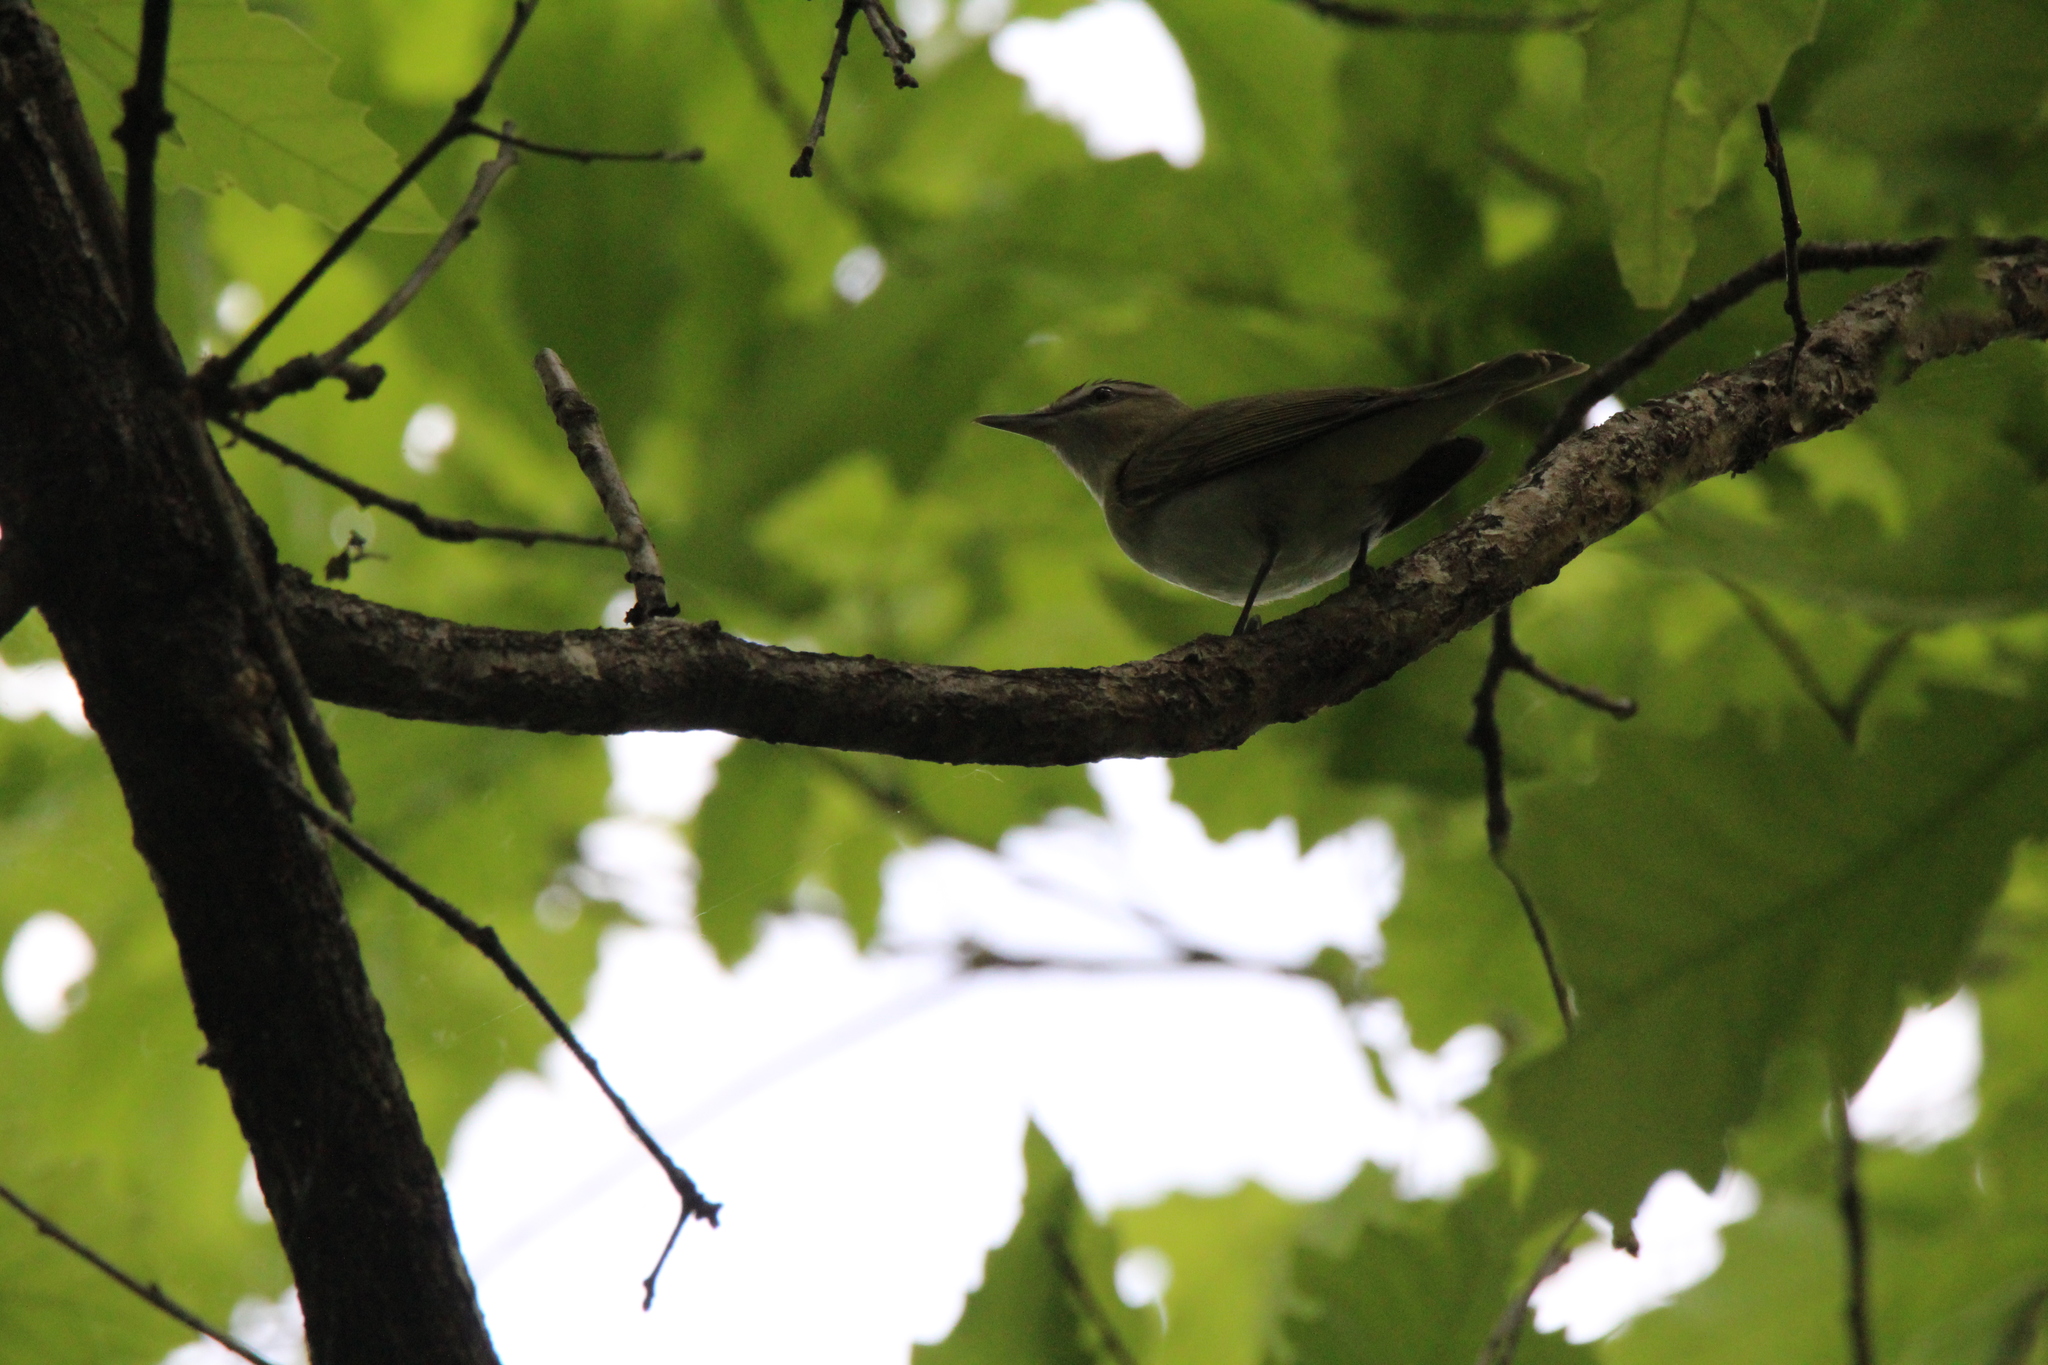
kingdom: Animalia
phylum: Chordata
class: Aves
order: Passeriformes
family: Vireonidae
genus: Vireo
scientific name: Vireo olivaceus
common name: Red-eyed vireo
